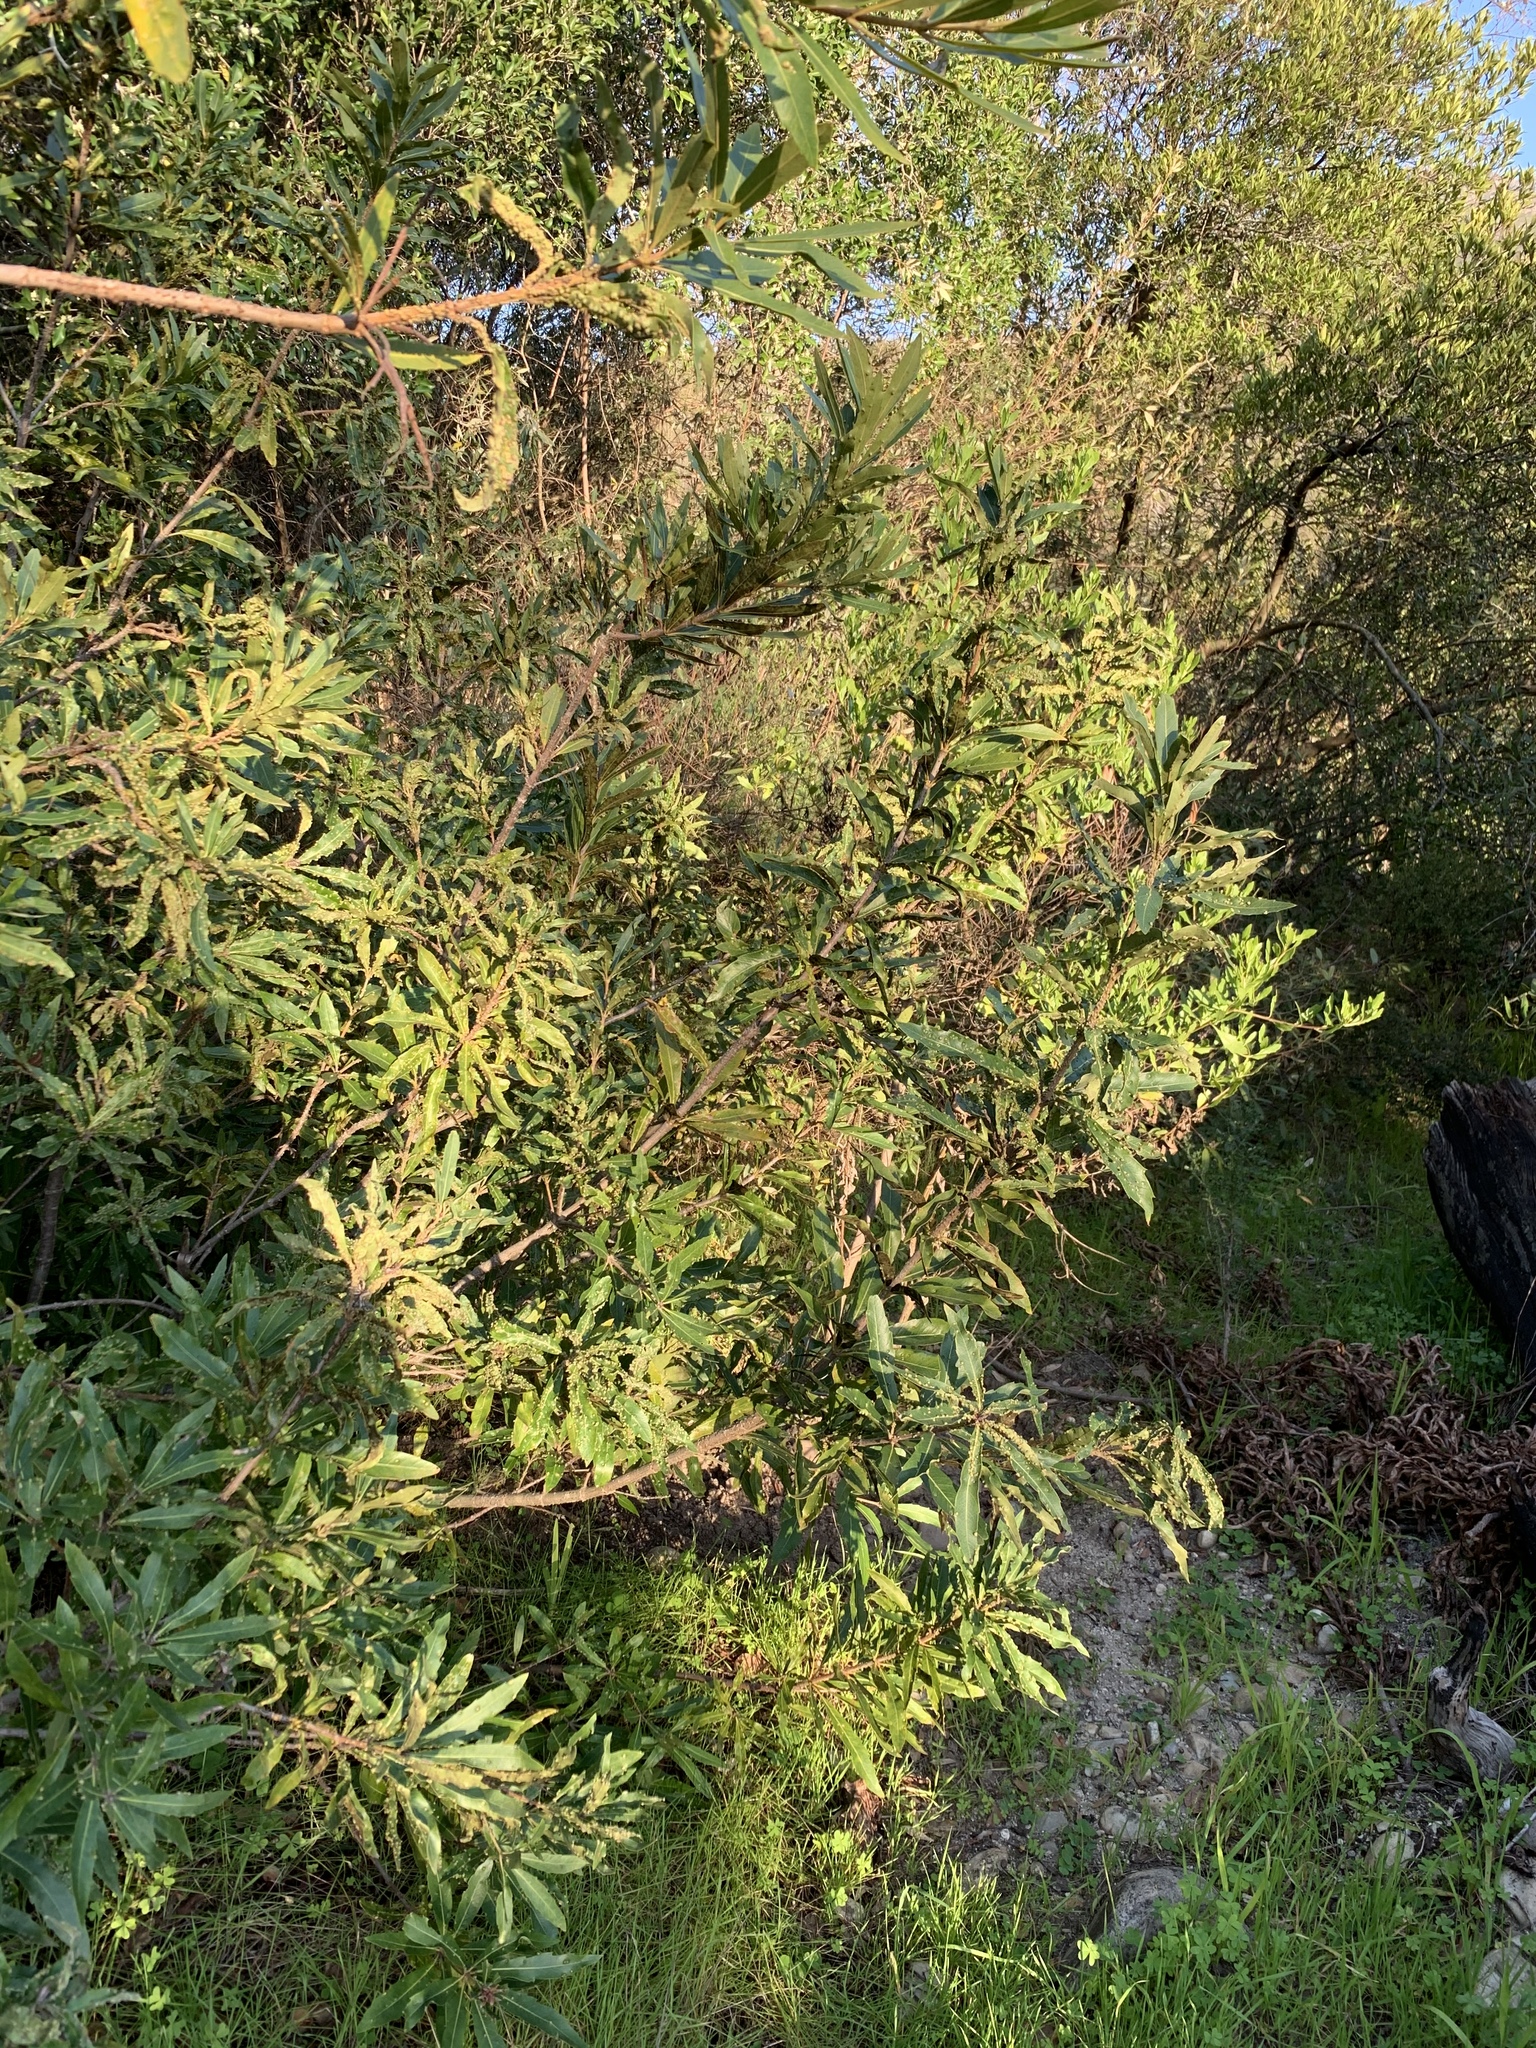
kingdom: Plantae
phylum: Tracheophyta
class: Magnoliopsida
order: Proteales
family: Proteaceae
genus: Brabejum
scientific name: Brabejum stellatifolium
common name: Wild almond
